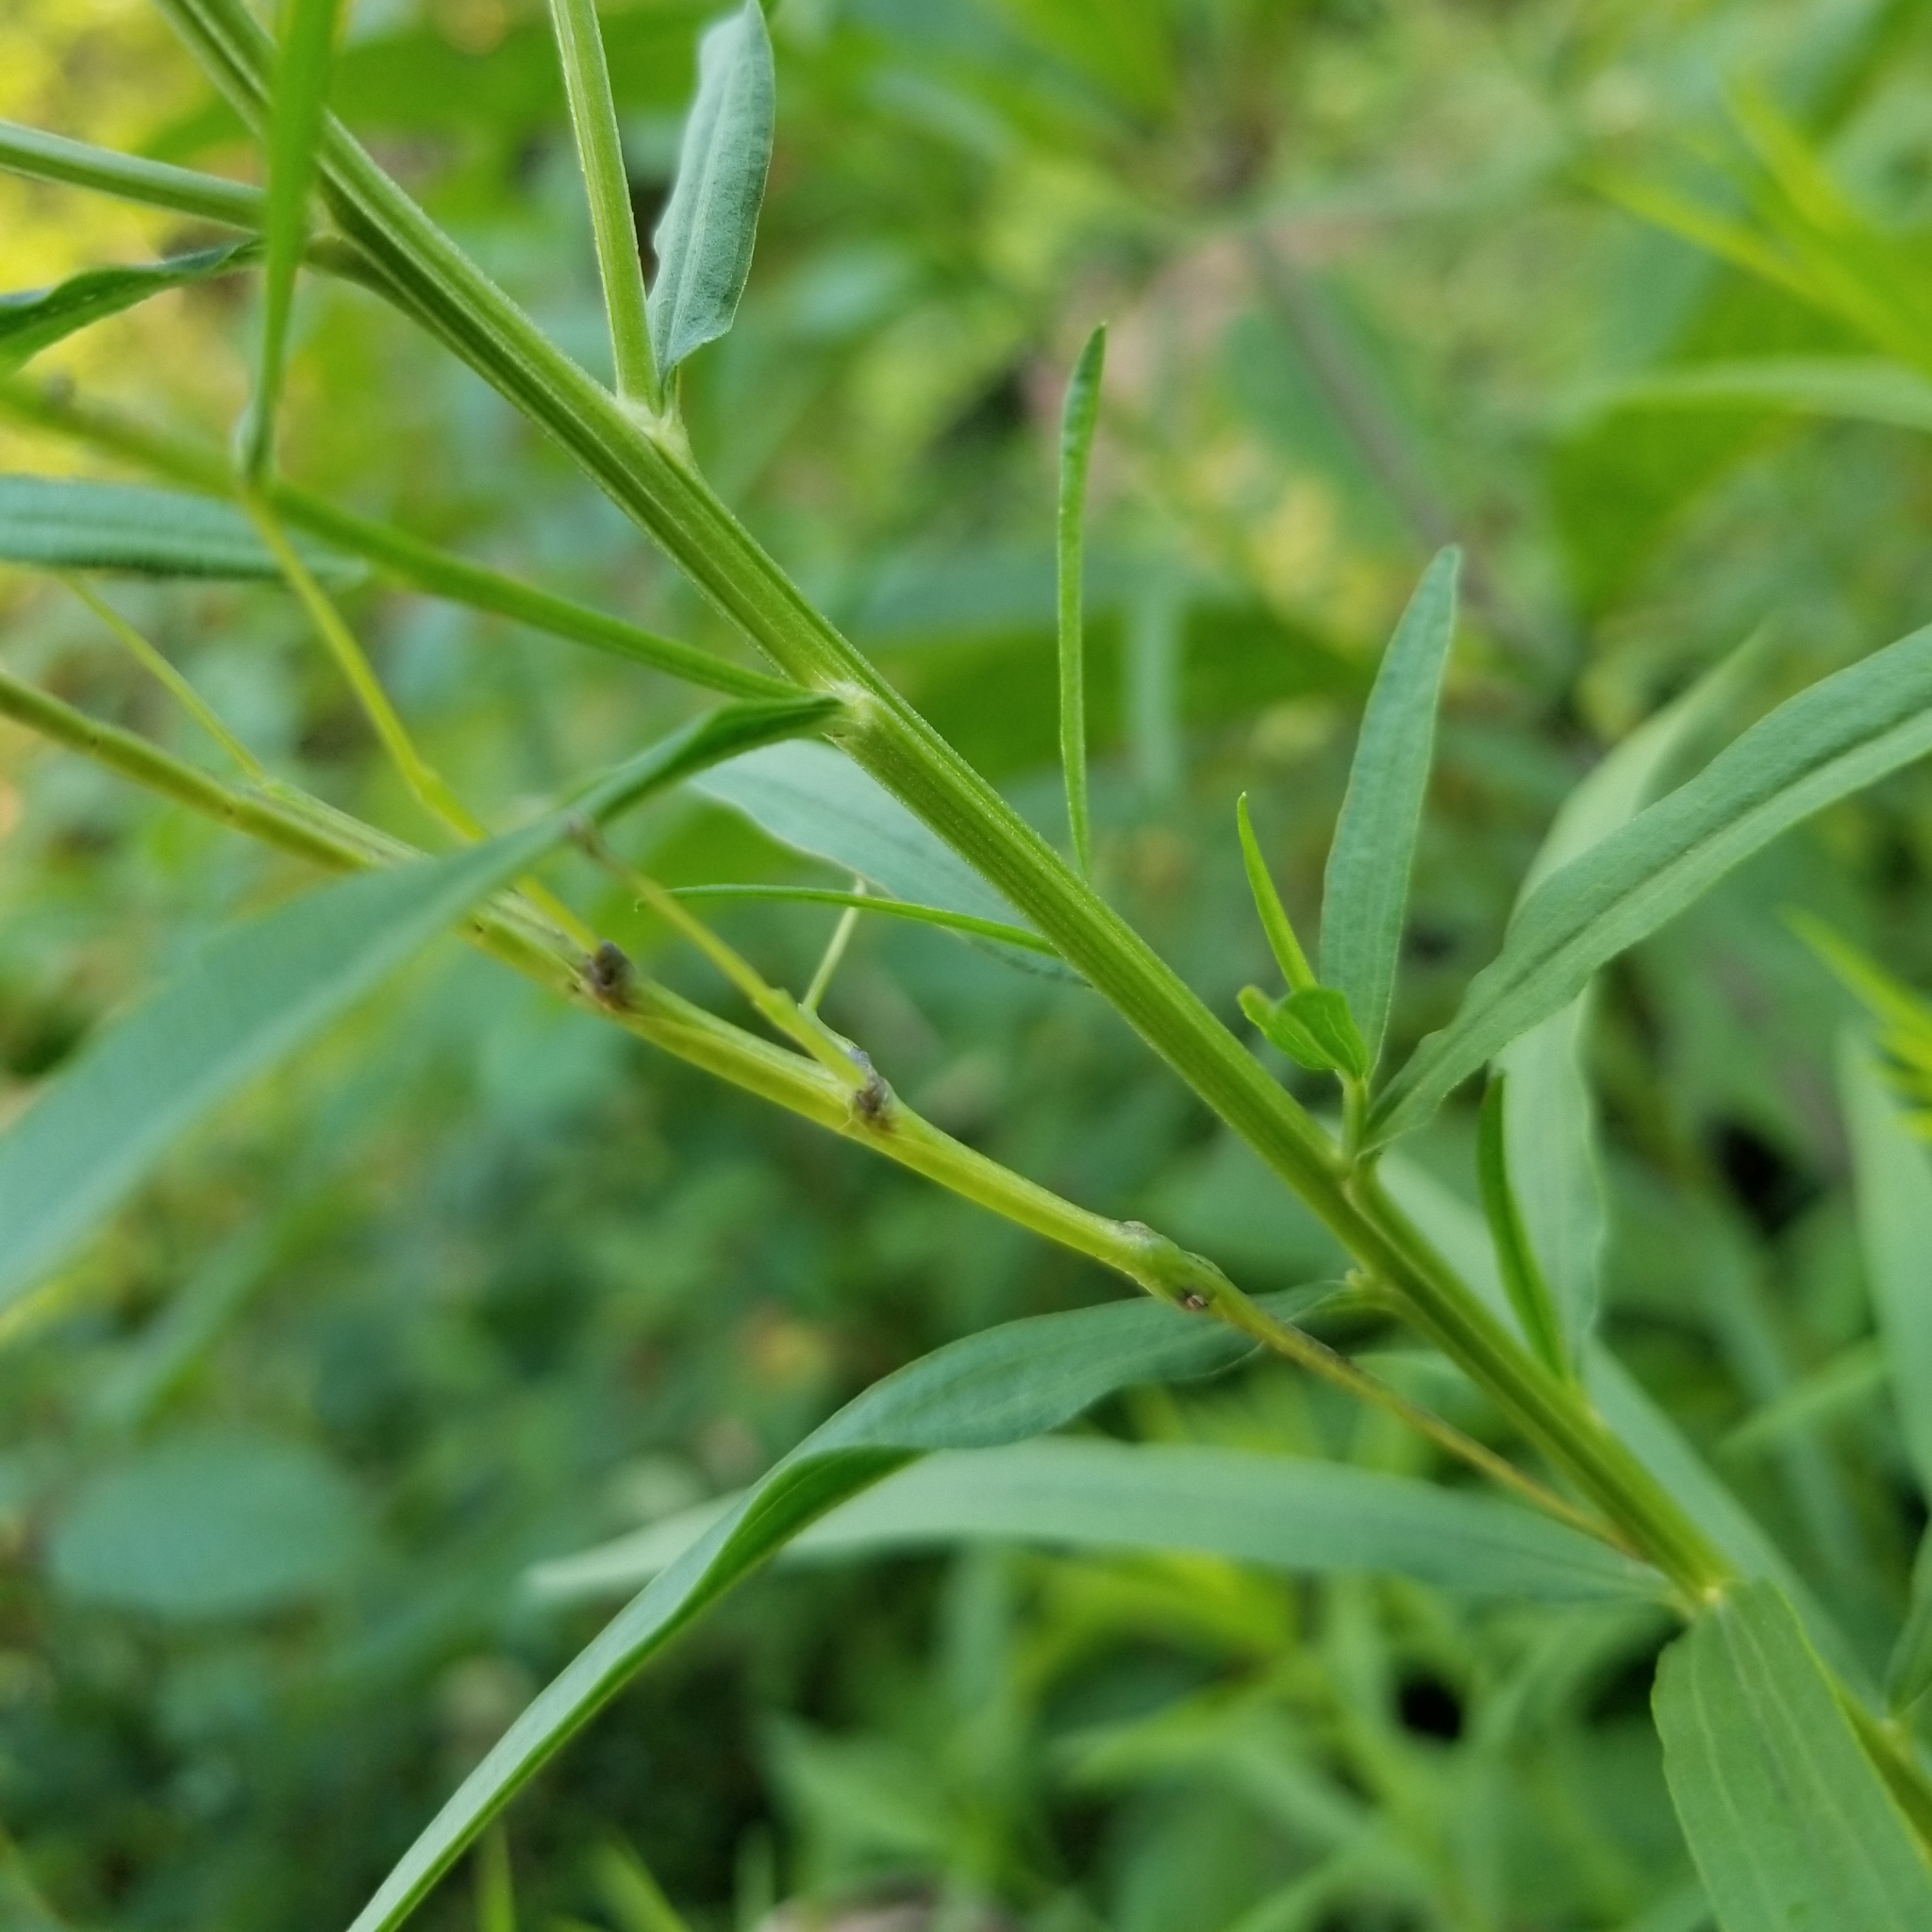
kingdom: Animalia
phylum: Arthropoda
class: Insecta
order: Phasmida
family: Diapheromeridae
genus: Diapheromera
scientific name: Diapheromera femorata
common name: Common american walkingstick
